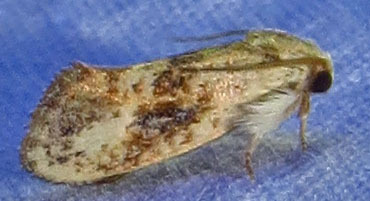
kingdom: Animalia
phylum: Arthropoda
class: Insecta
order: Lepidoptera
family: Tineidae
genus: Acrolophus
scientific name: Acrolophus mycetophagus
